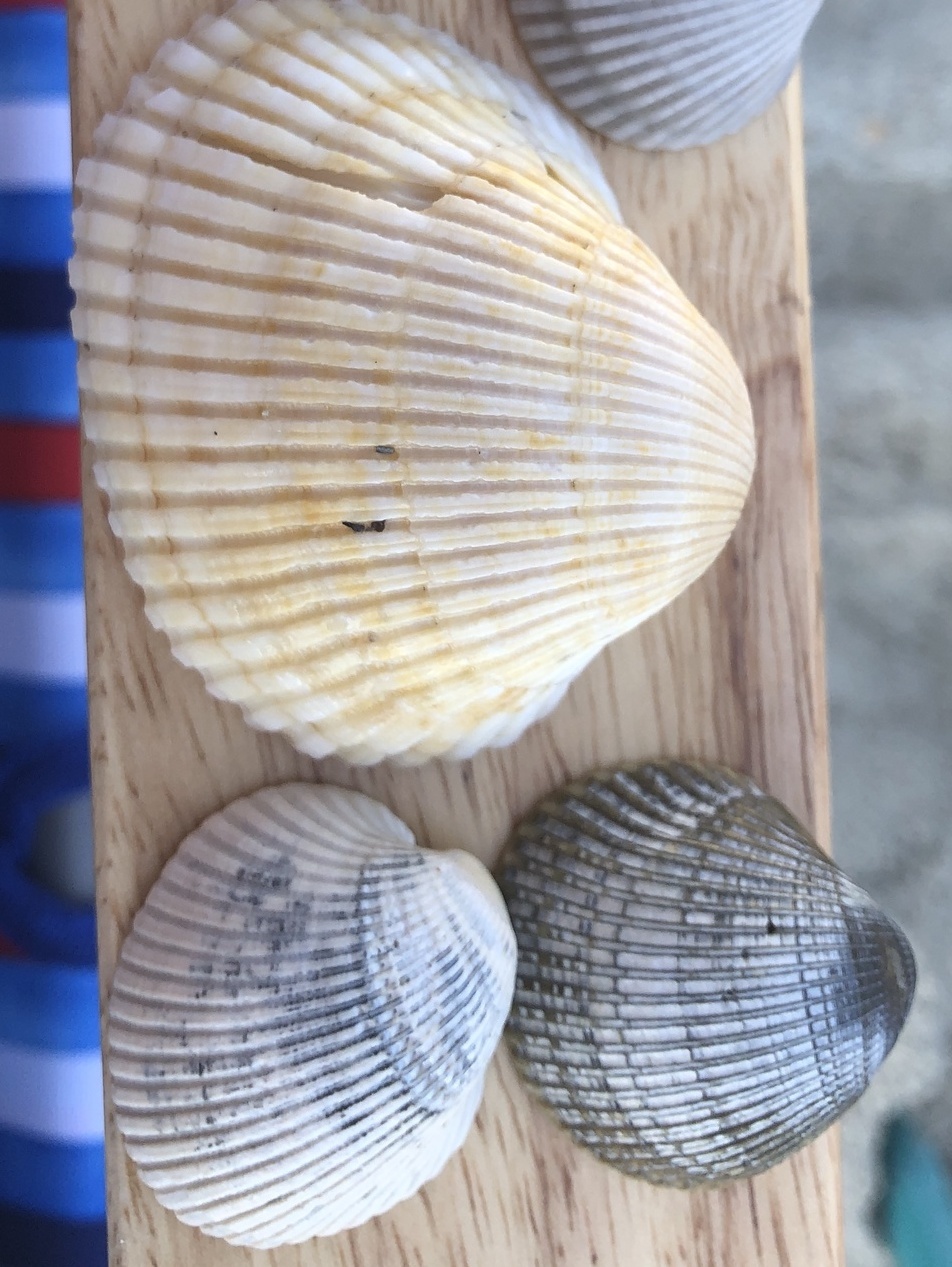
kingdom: Animalia
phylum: Mollusca
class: Bivalvia
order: Arcida
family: Arcidae
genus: Lunarca
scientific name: Lunarca ovalis
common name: Blood ark
